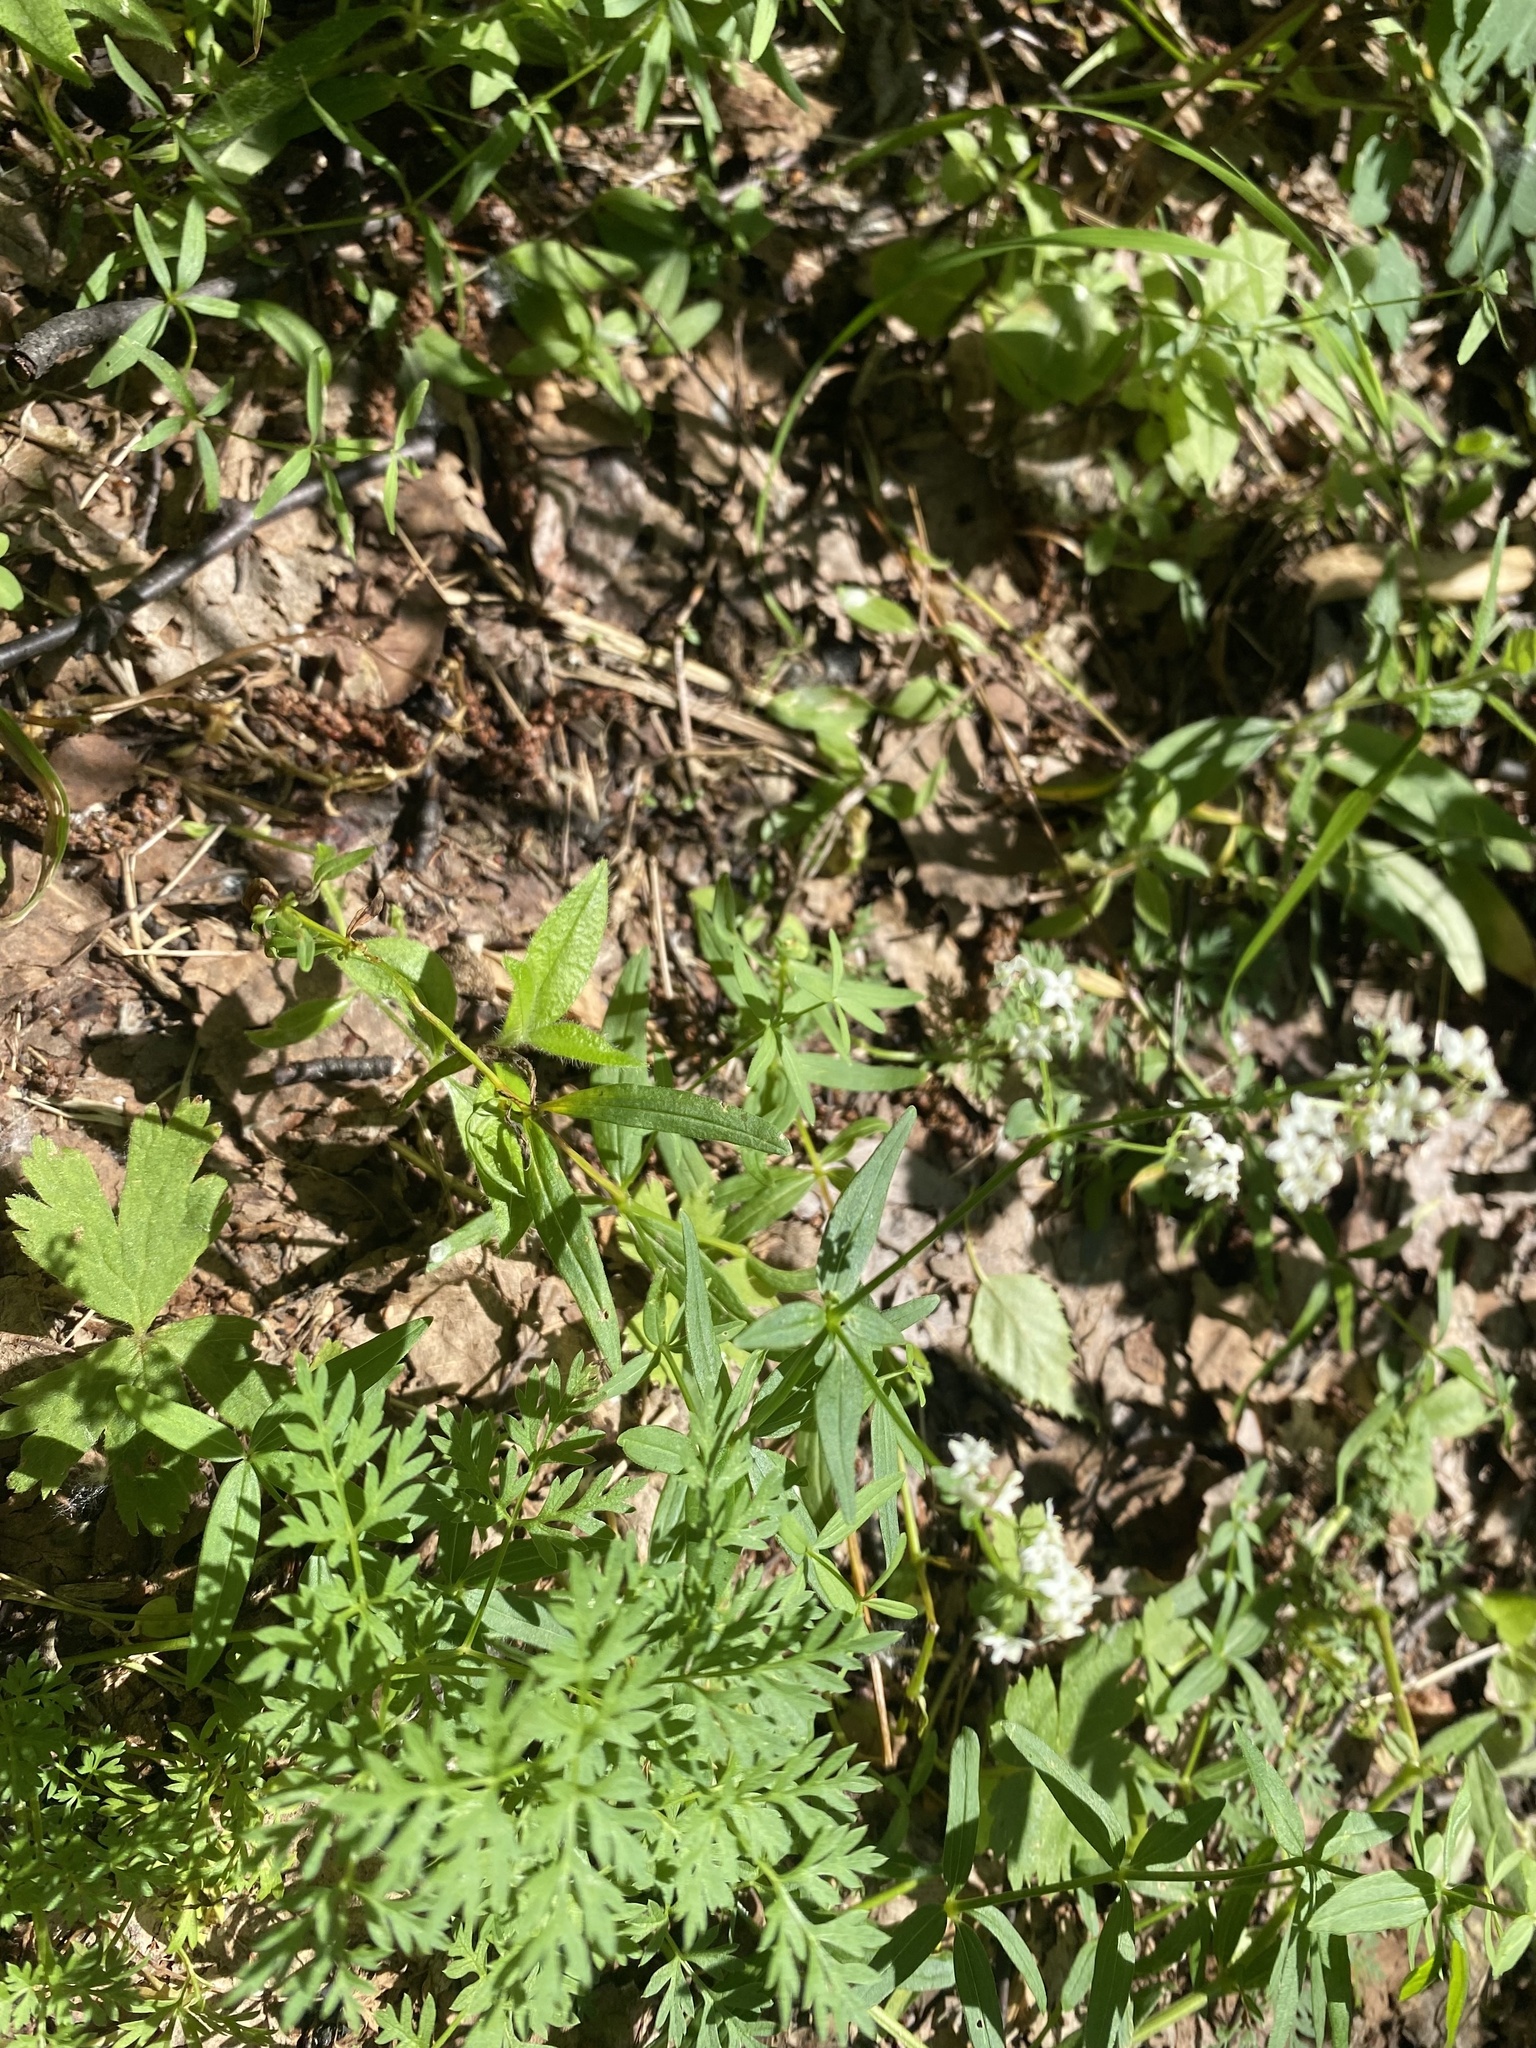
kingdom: Plantae
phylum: Tracheophyta
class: Magnoliopsida
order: Gentianales
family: Rubiaceae
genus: Galium
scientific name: Galium boreale
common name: Northern bedstraw
